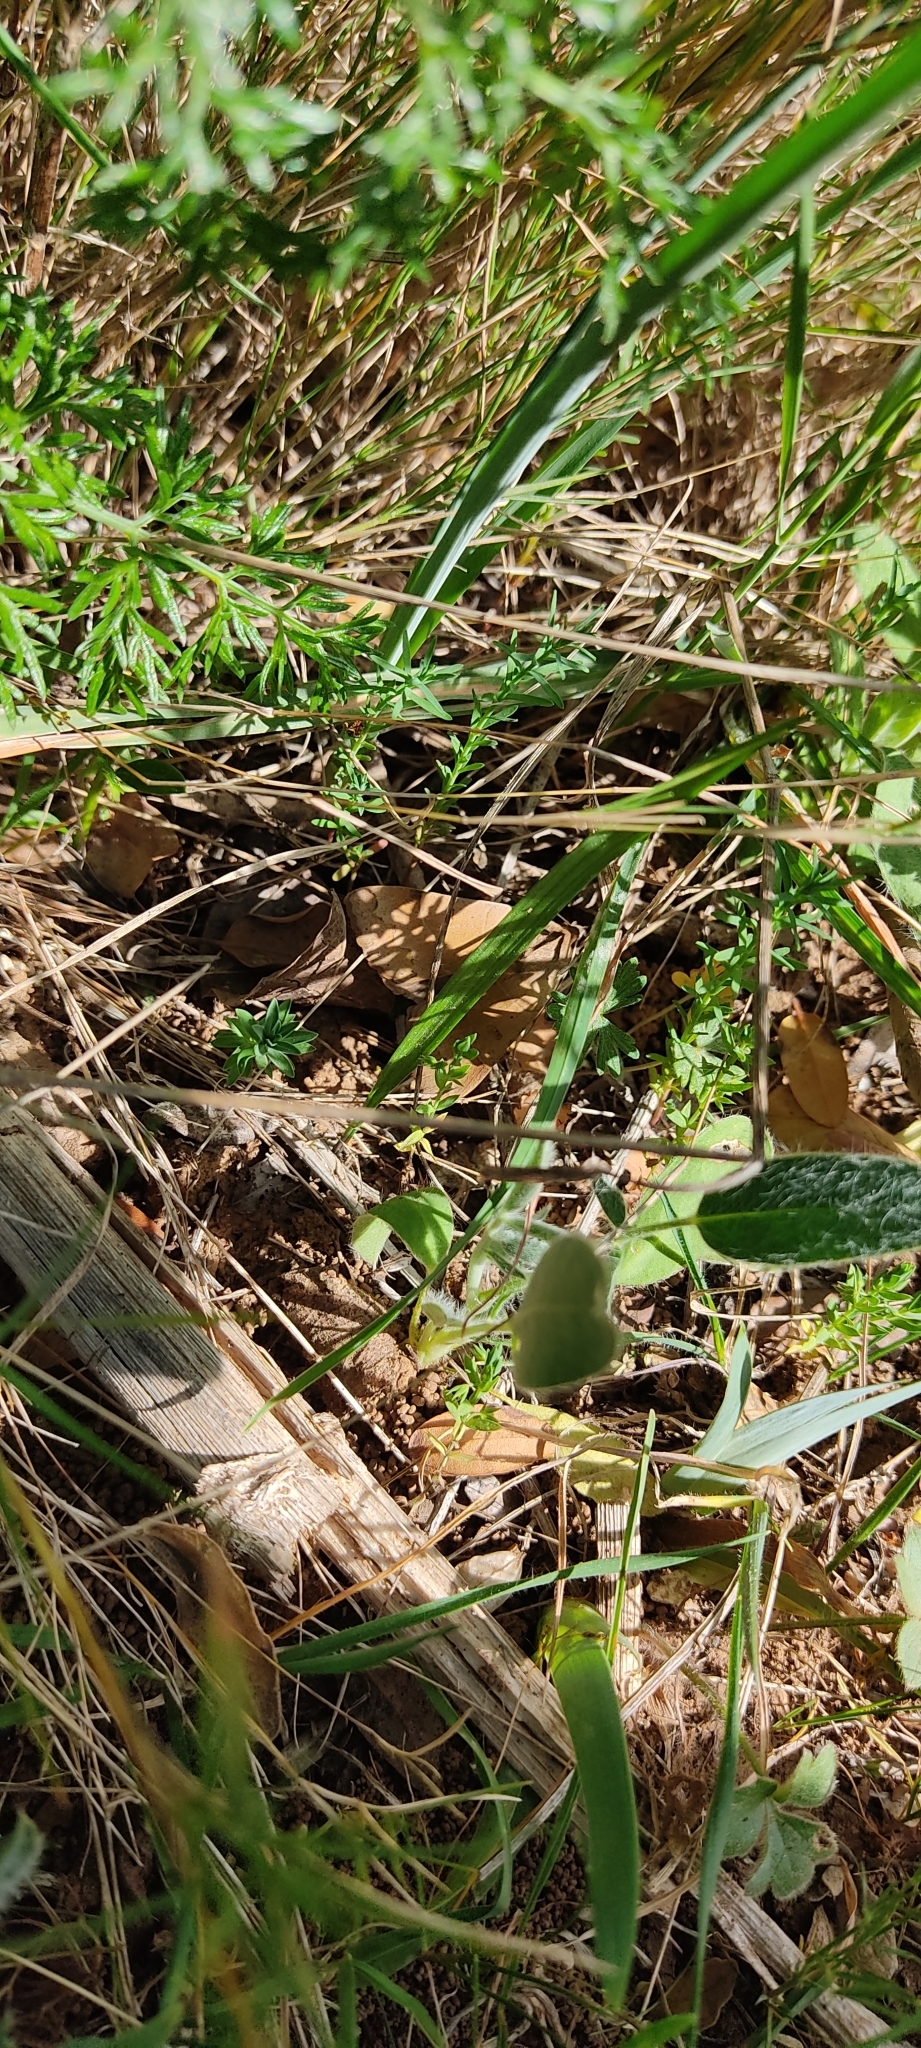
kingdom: Animalia
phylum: Arthropoda
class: Insecta
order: Lepidoptera
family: Erebidae
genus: Minucia
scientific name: Minucia lunaris
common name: Lunar double-stripe
